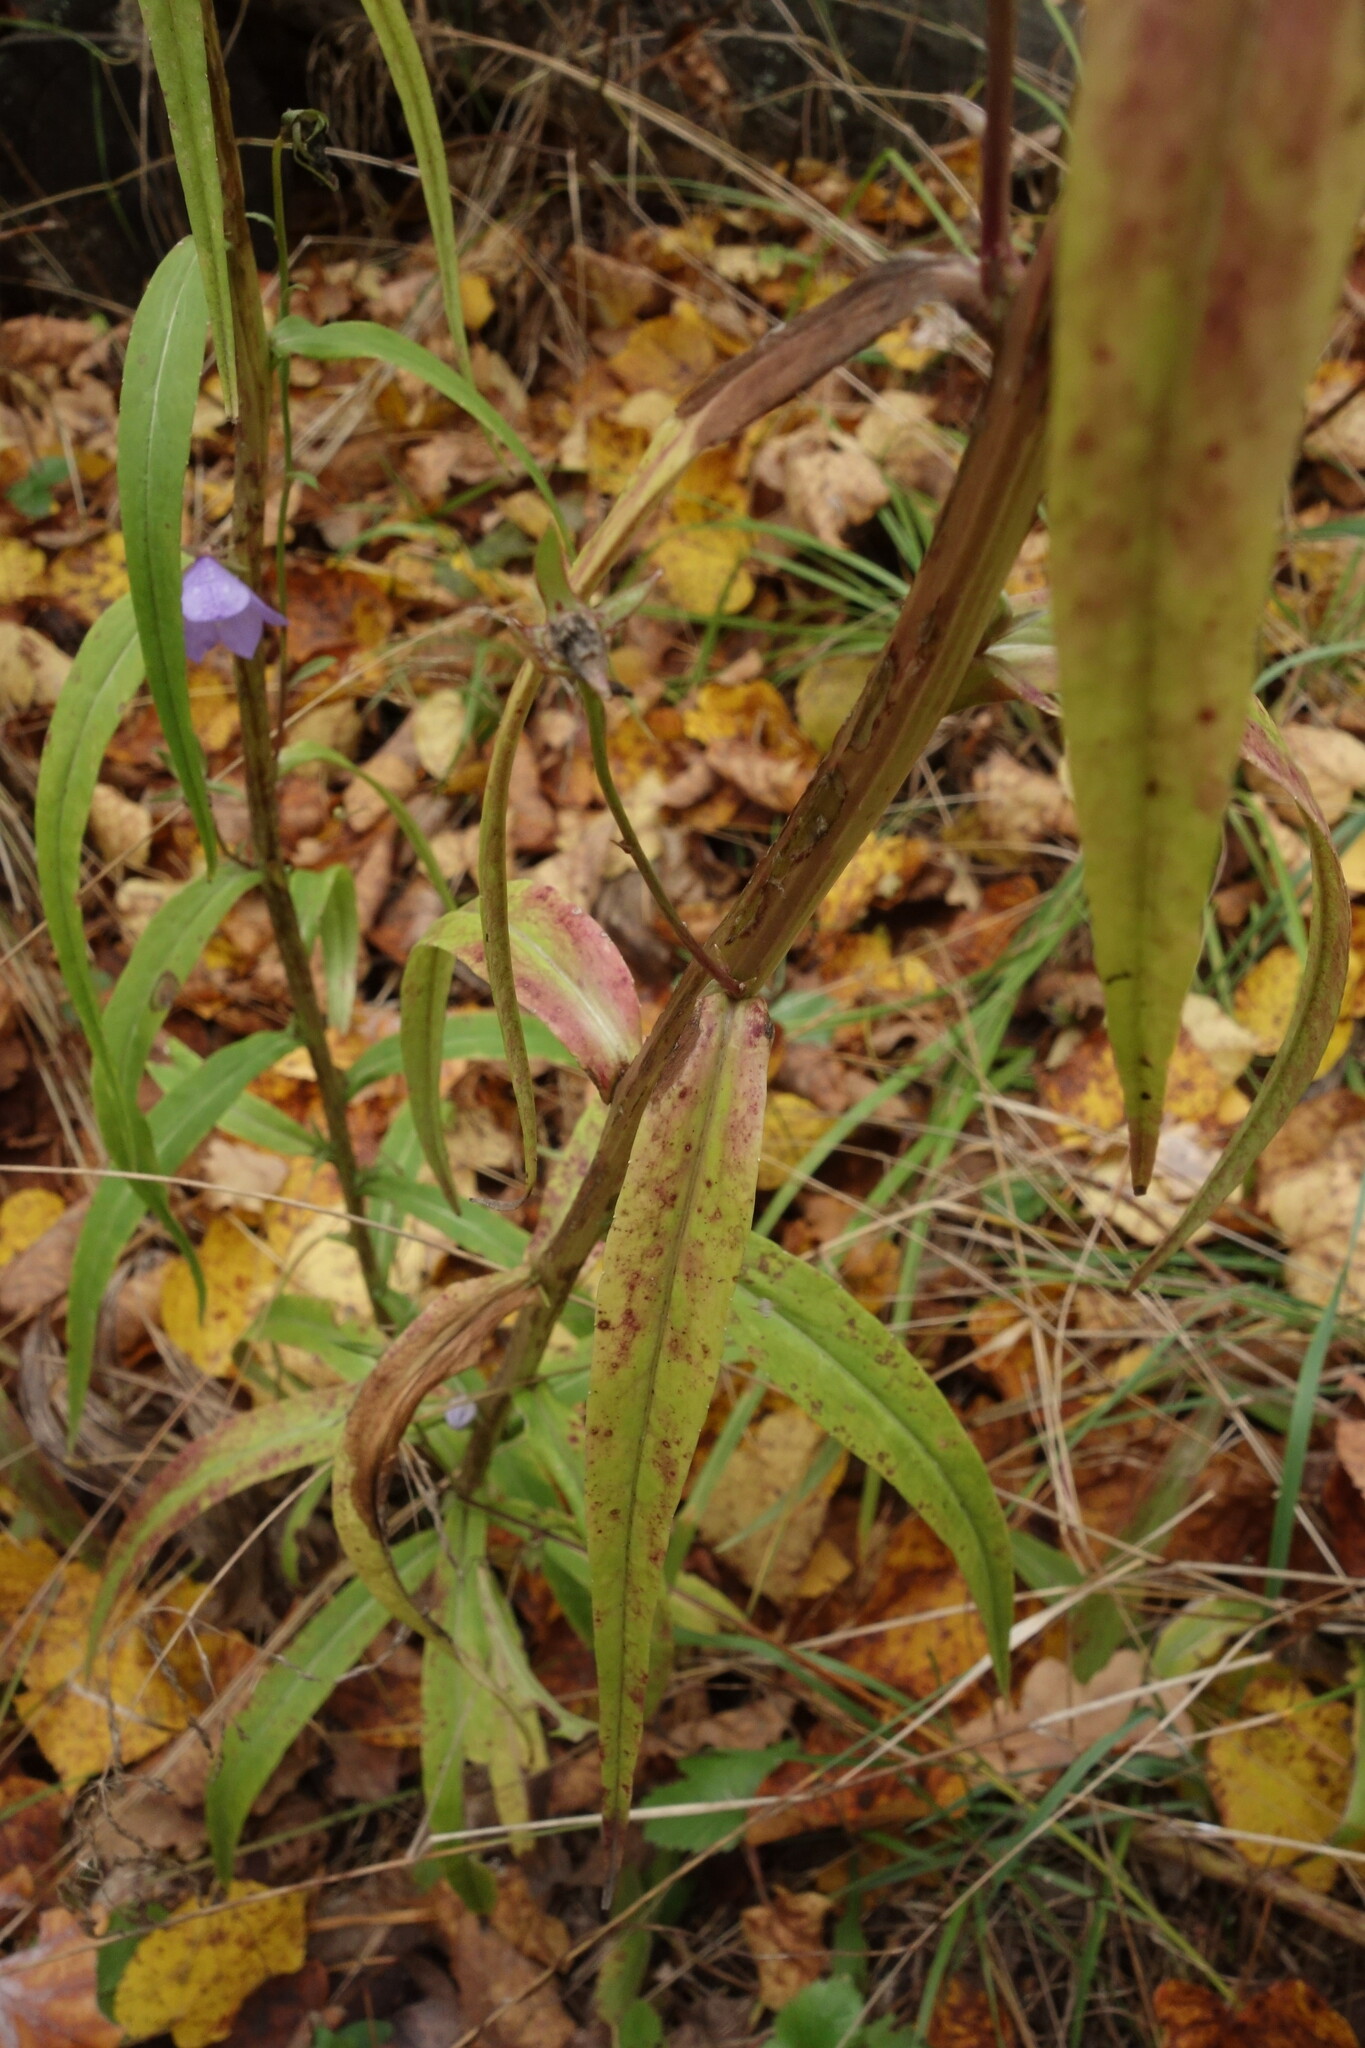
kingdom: Plantae
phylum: Tracheophyta
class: Magnoliopsida
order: Asterales
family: Campanulaceae
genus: Campanula
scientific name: Campanula persicifolia
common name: Peach-leaved bellflower
